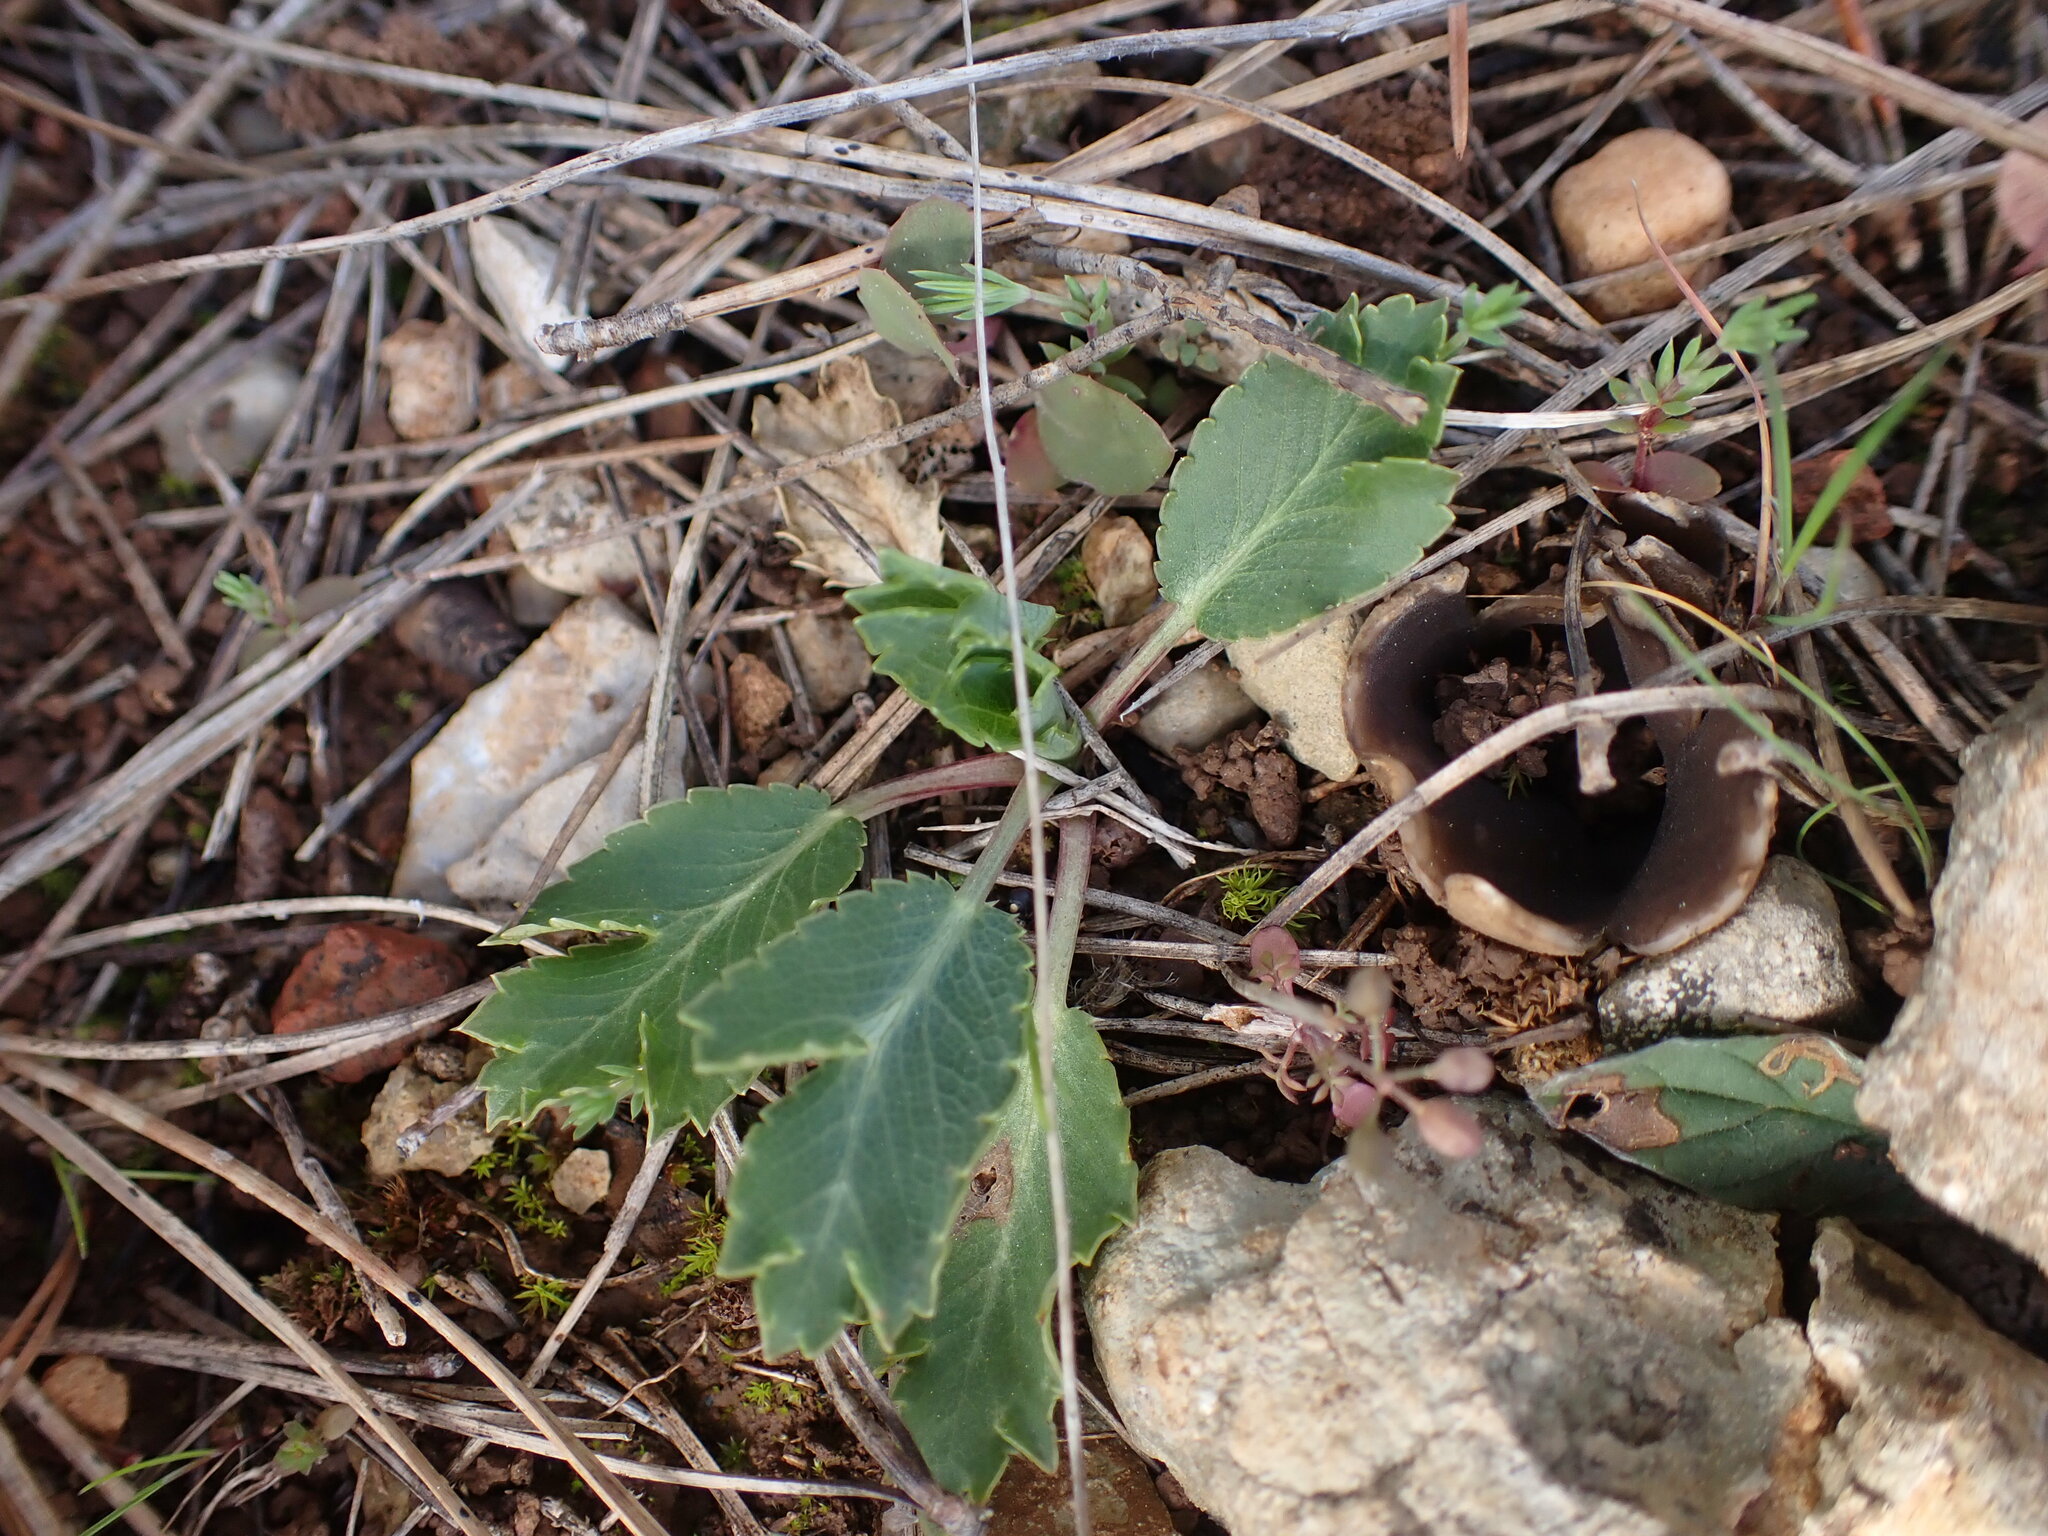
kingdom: Plantae
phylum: Tracheophyta
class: Magnoliopsida
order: Apiales
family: Apiaceae
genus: Eryngium
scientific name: Eryngium campestre
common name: Field eryngo
